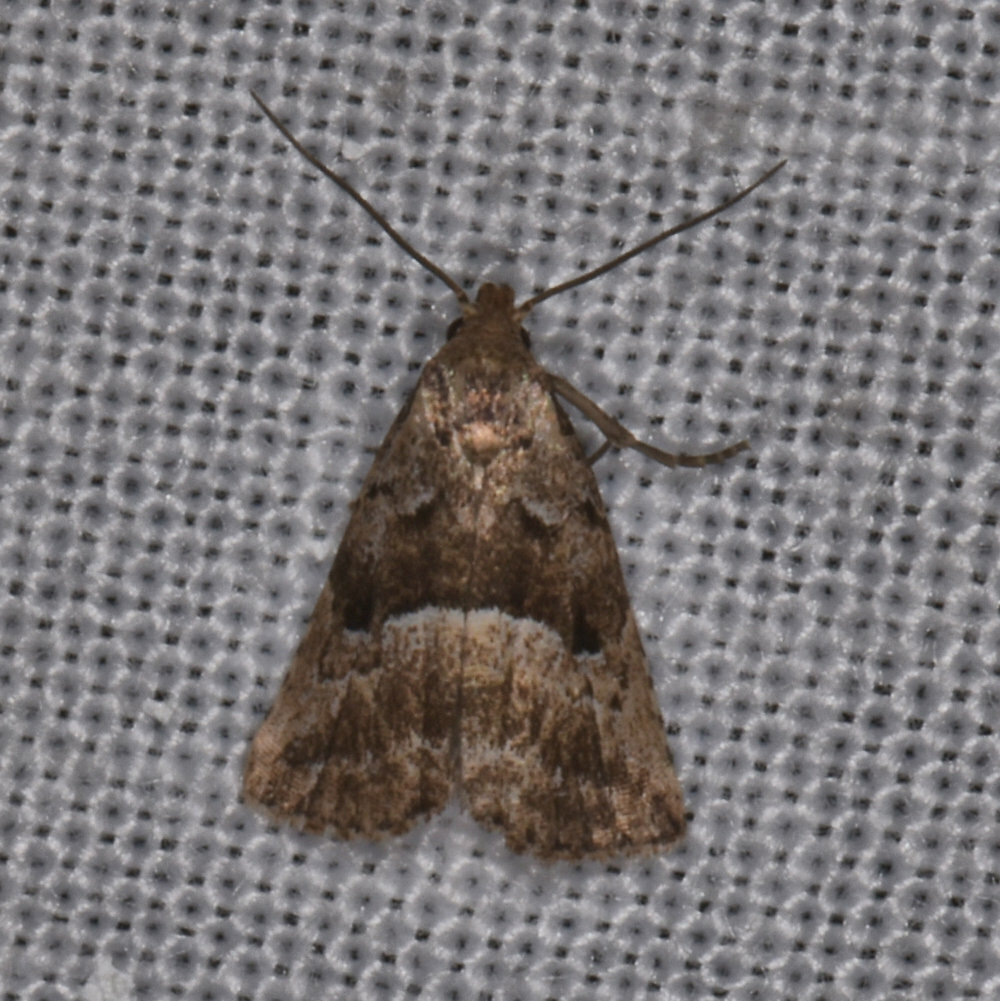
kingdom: Animalia
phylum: Arthropoda
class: Insecta
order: Lepidoptera
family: Erebidae
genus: Hypenodes
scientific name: Hypenodes caducus
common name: Large hypenodes moth
